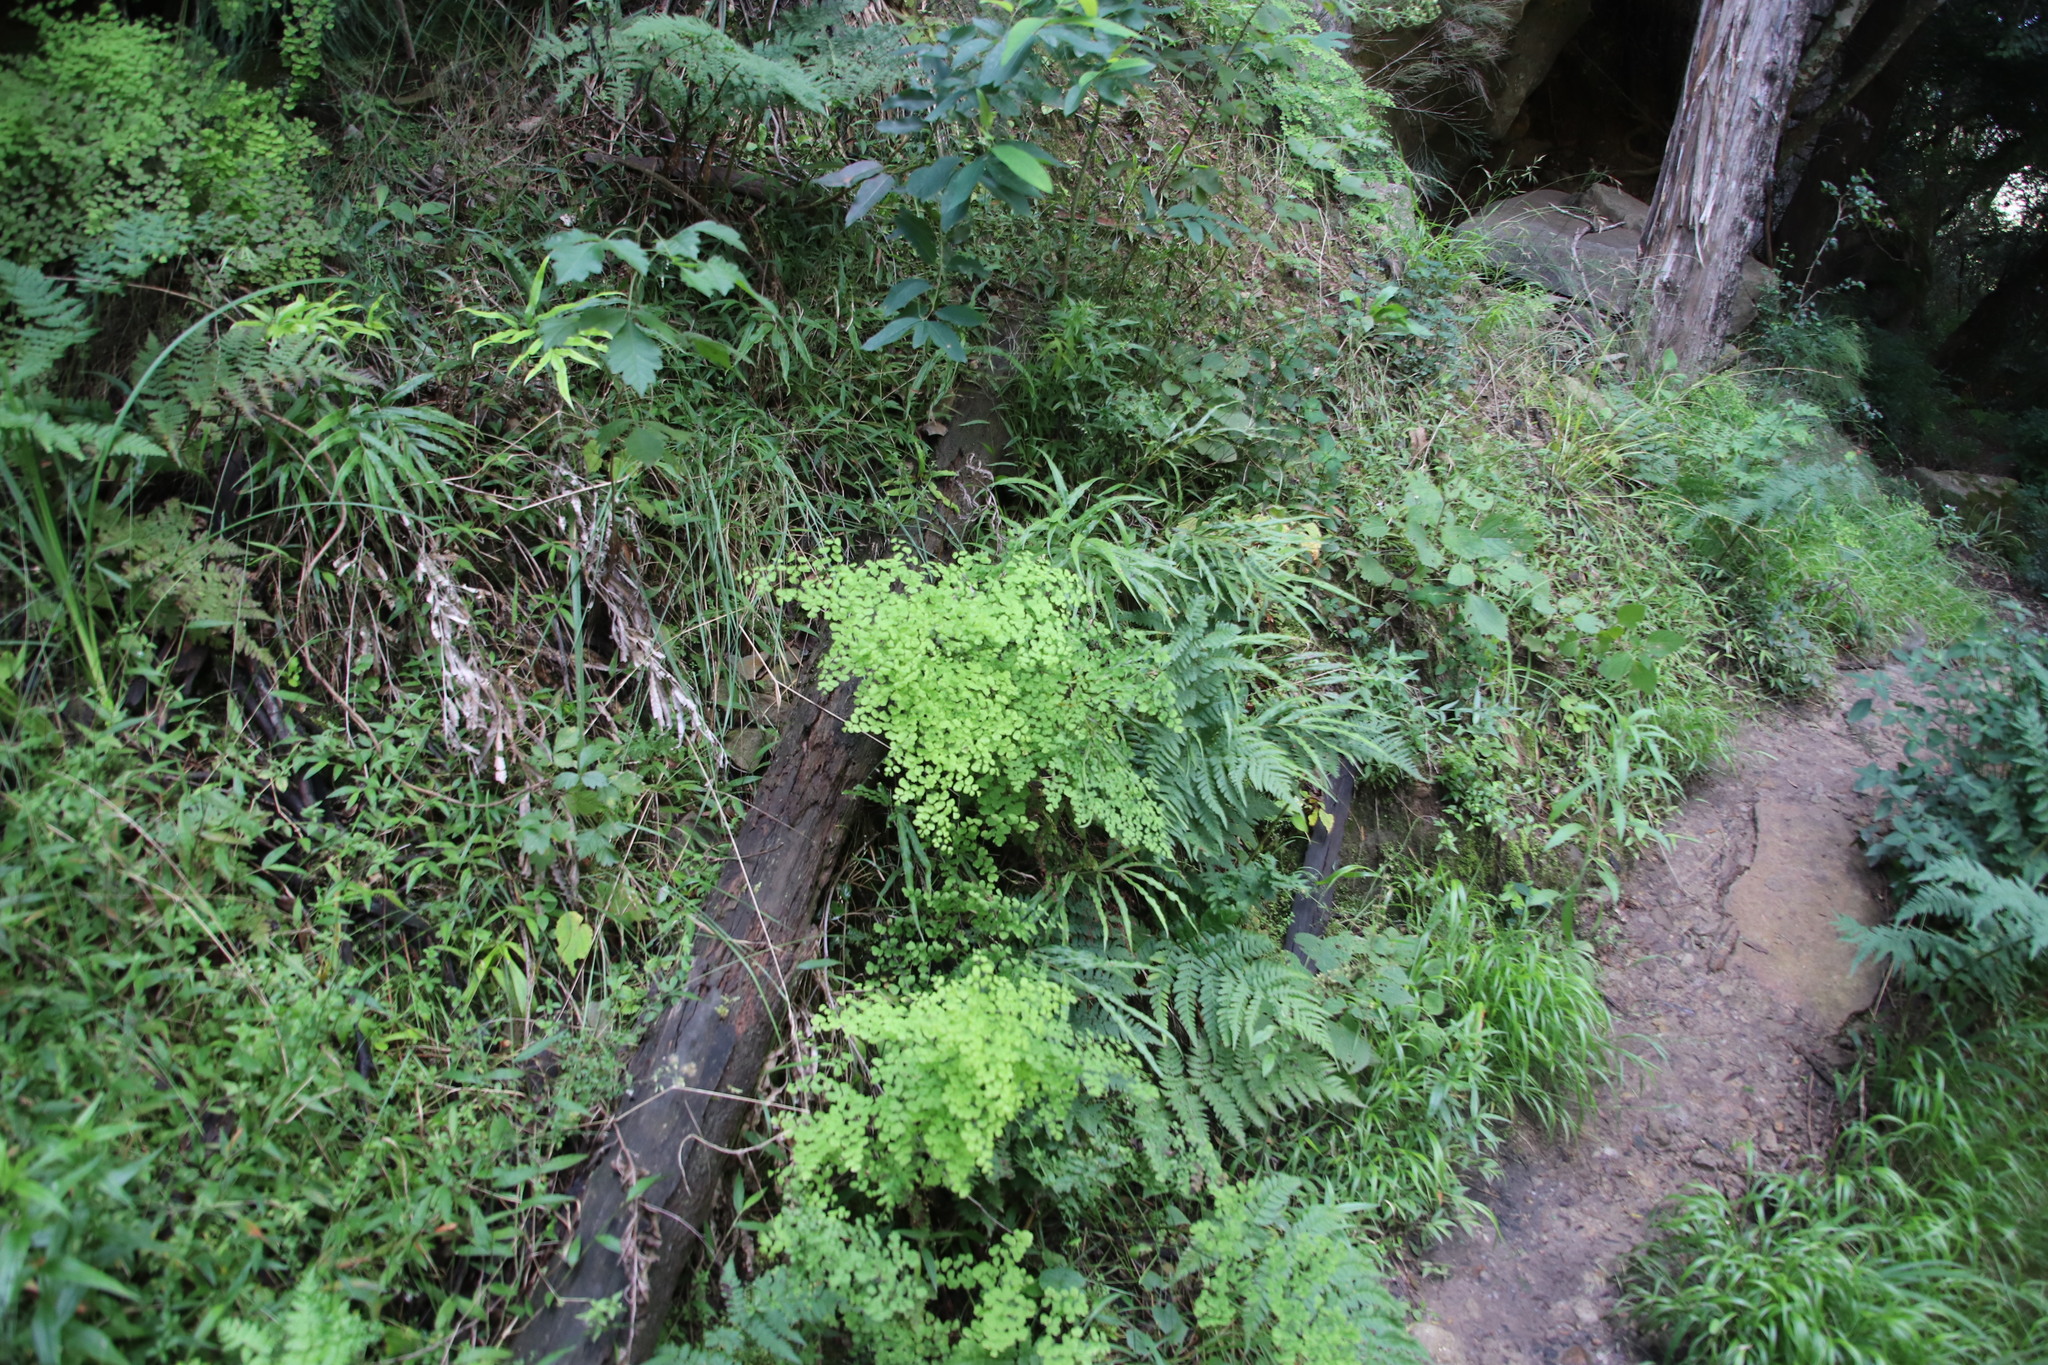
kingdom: Plantae
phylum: Tracheophyta
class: Polypodiopsida
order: Polypodiales
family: Pteridaceae
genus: Adiantum
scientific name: Adiantum poiretii
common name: Mexican maidenhair
